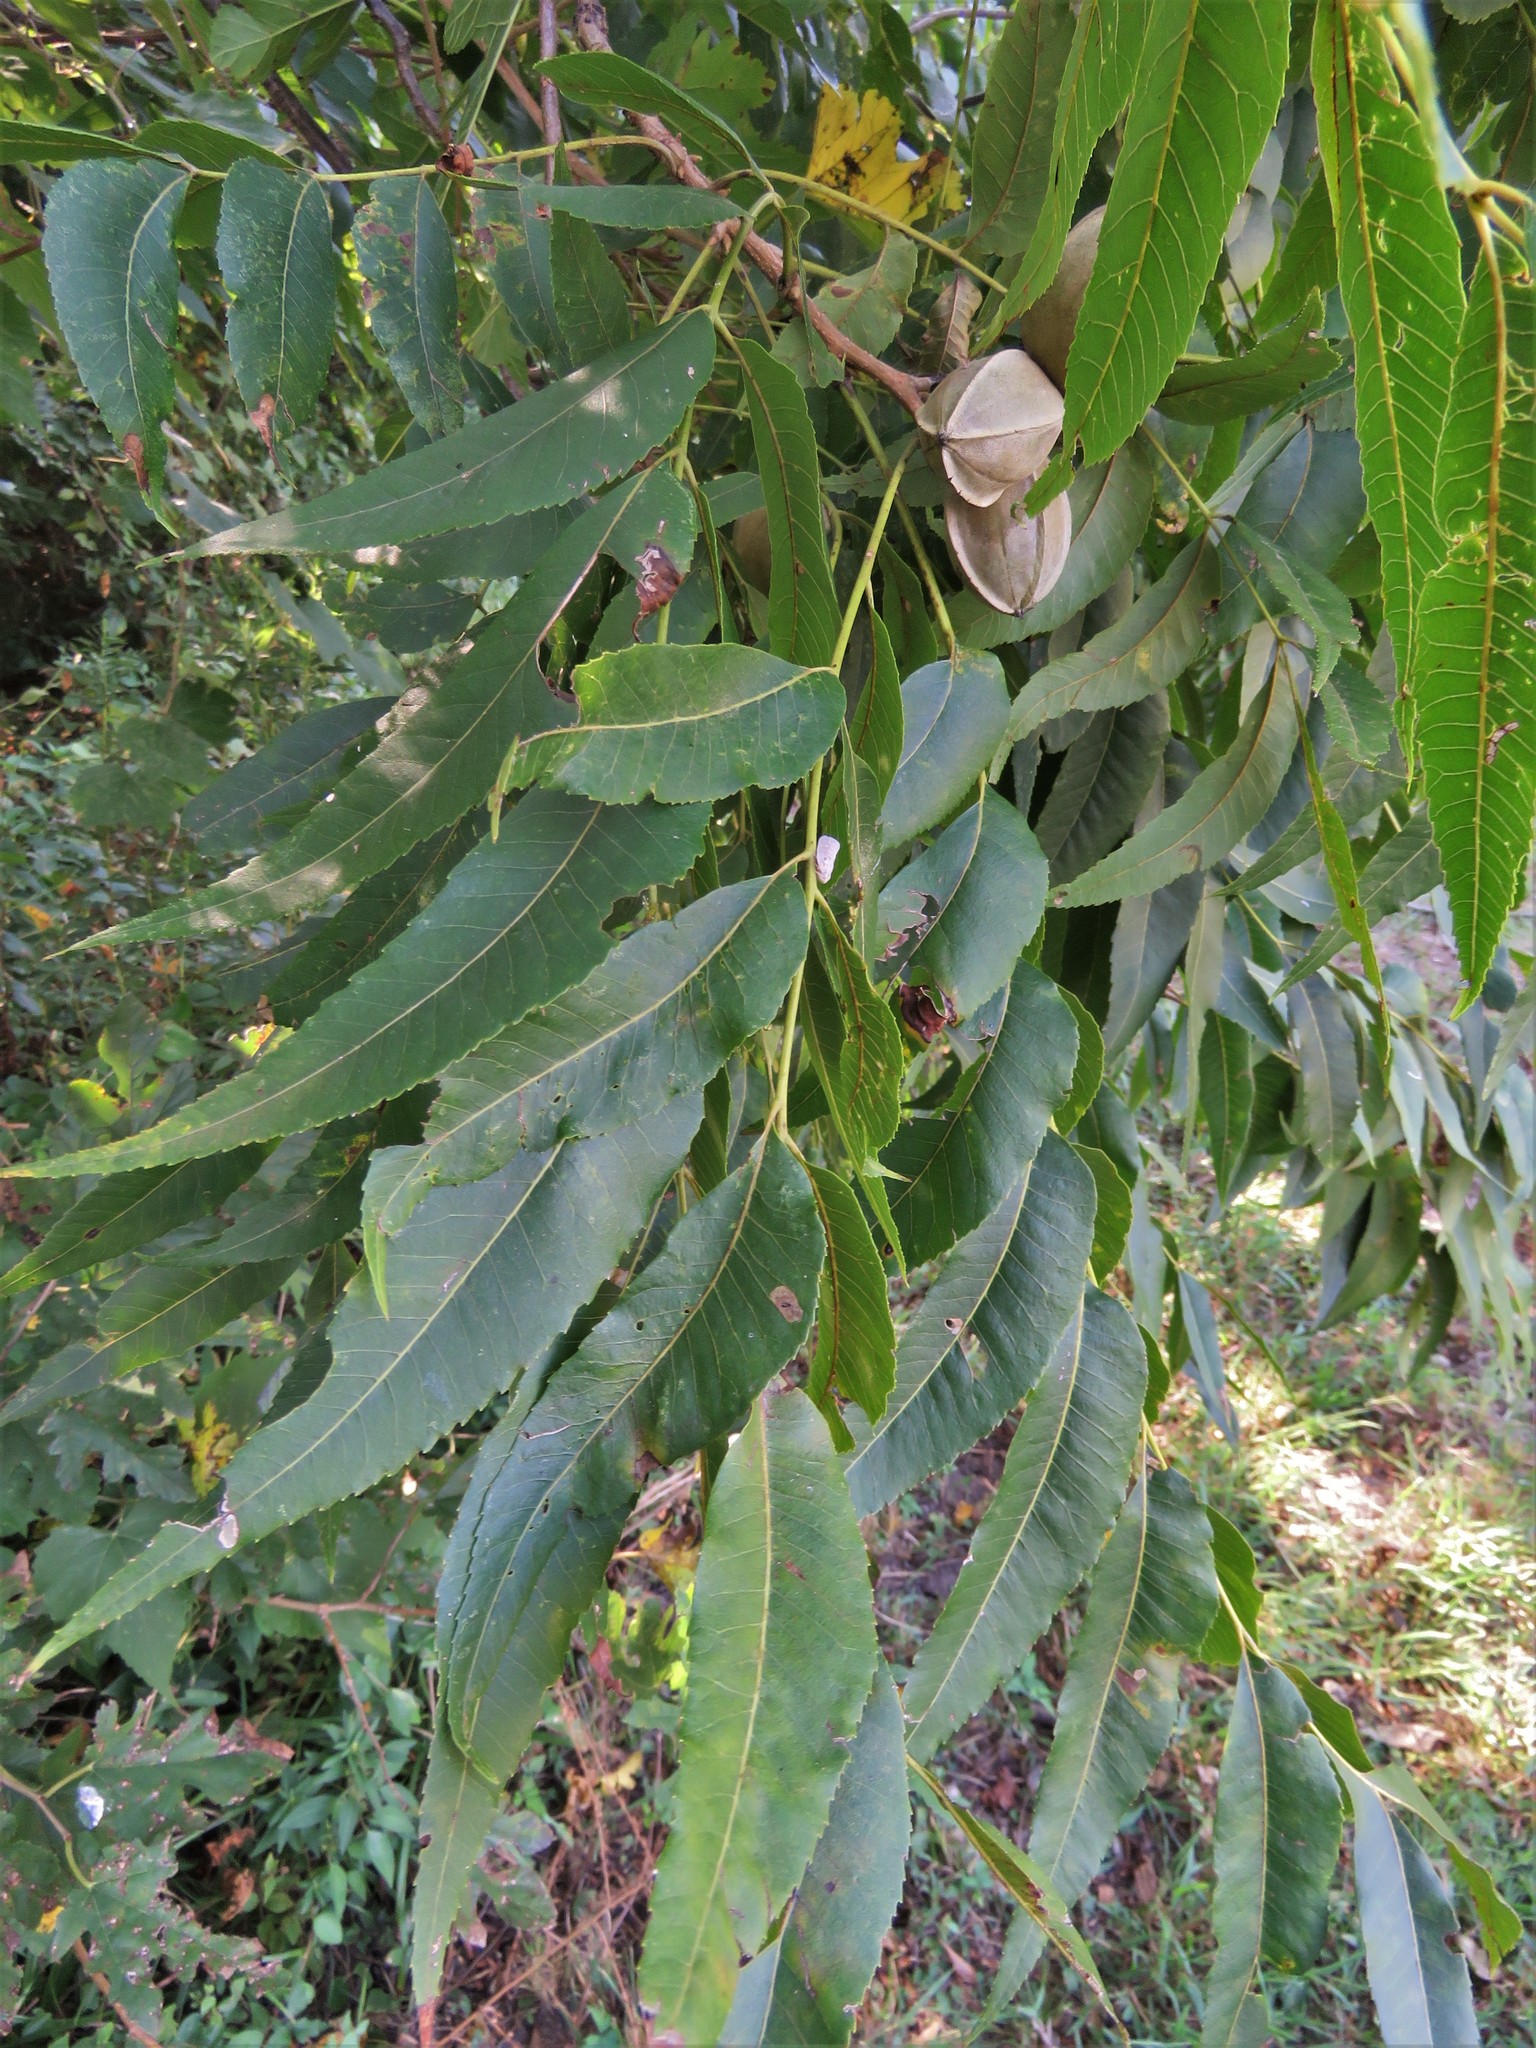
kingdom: Plantae
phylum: Tracheophyta
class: Magnoliopsida
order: Fagales
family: Juglandaceae
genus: Carya
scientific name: Carya illinoinensis
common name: Pecan
